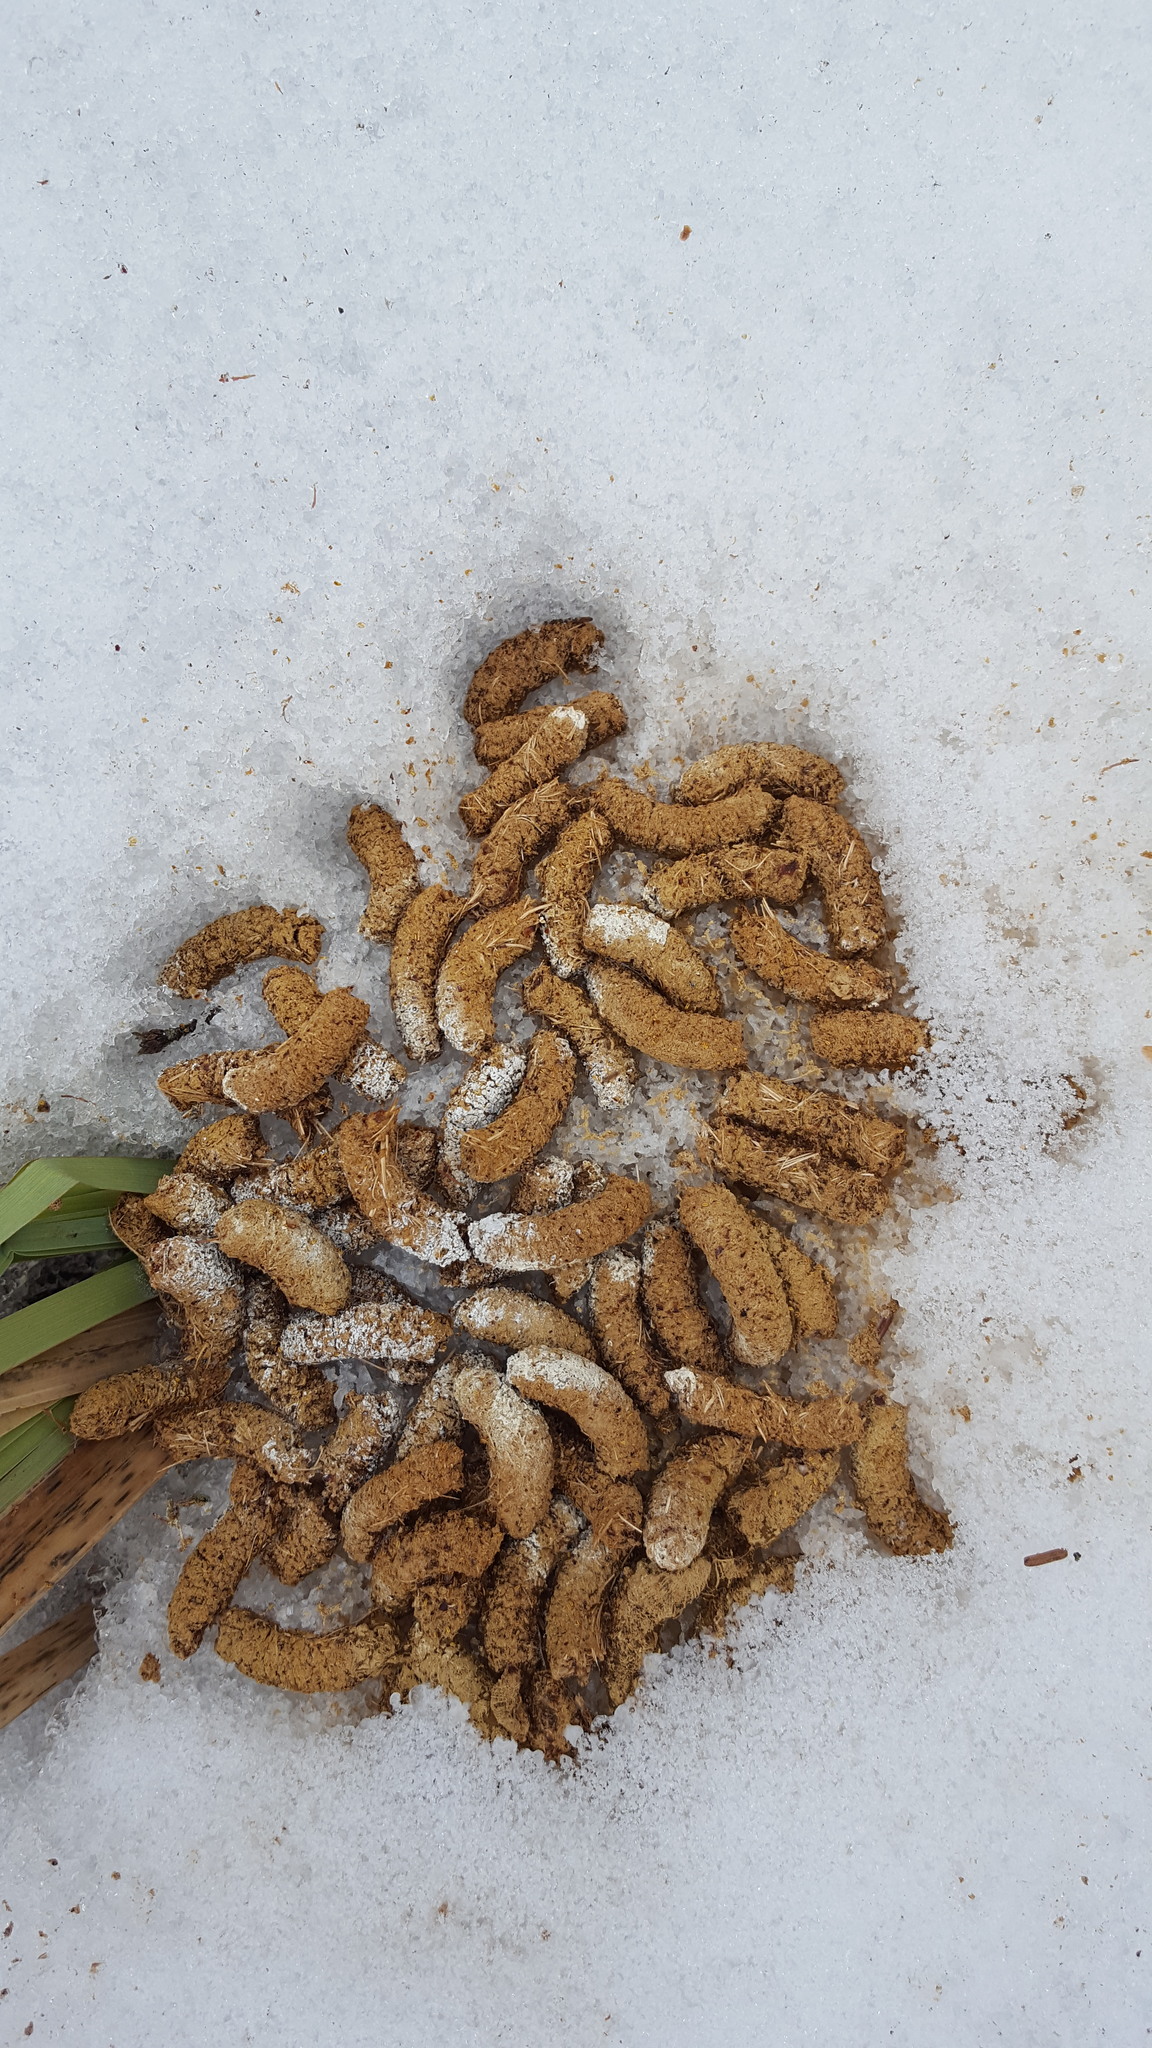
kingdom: Animalia
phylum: Chordata
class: Aves
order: Galliformes
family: Phasianidae
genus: Bonasa
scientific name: Bonasa umbellus
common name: Ruffed grouse
